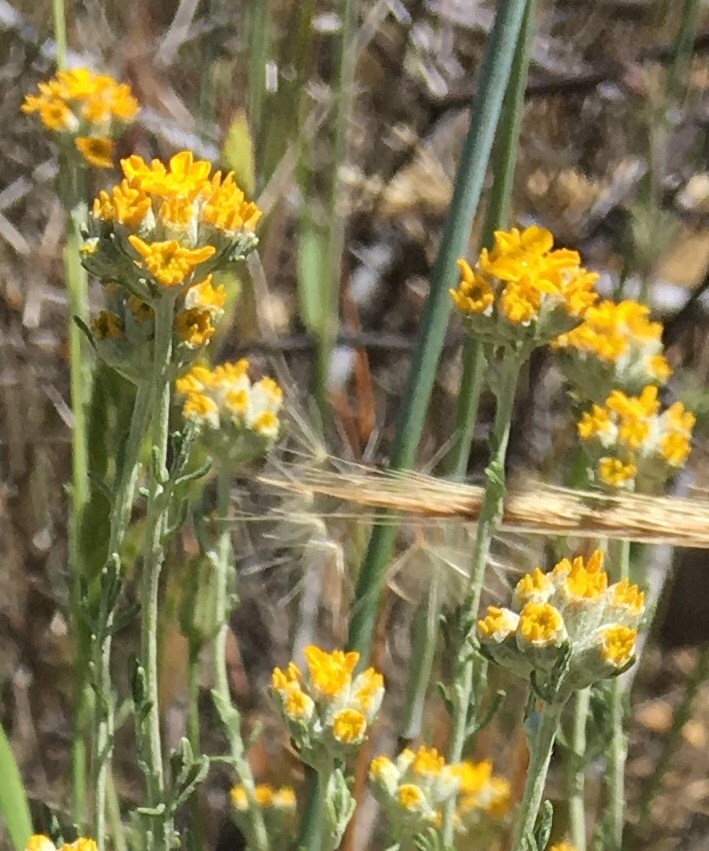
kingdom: Plantae
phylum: Tracheophyta
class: Magnoliopsida
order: Asterales
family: Asteraceae
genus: Eriophyllum
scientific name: Eriophyllum confertiflorum
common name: Golden-yarrow
